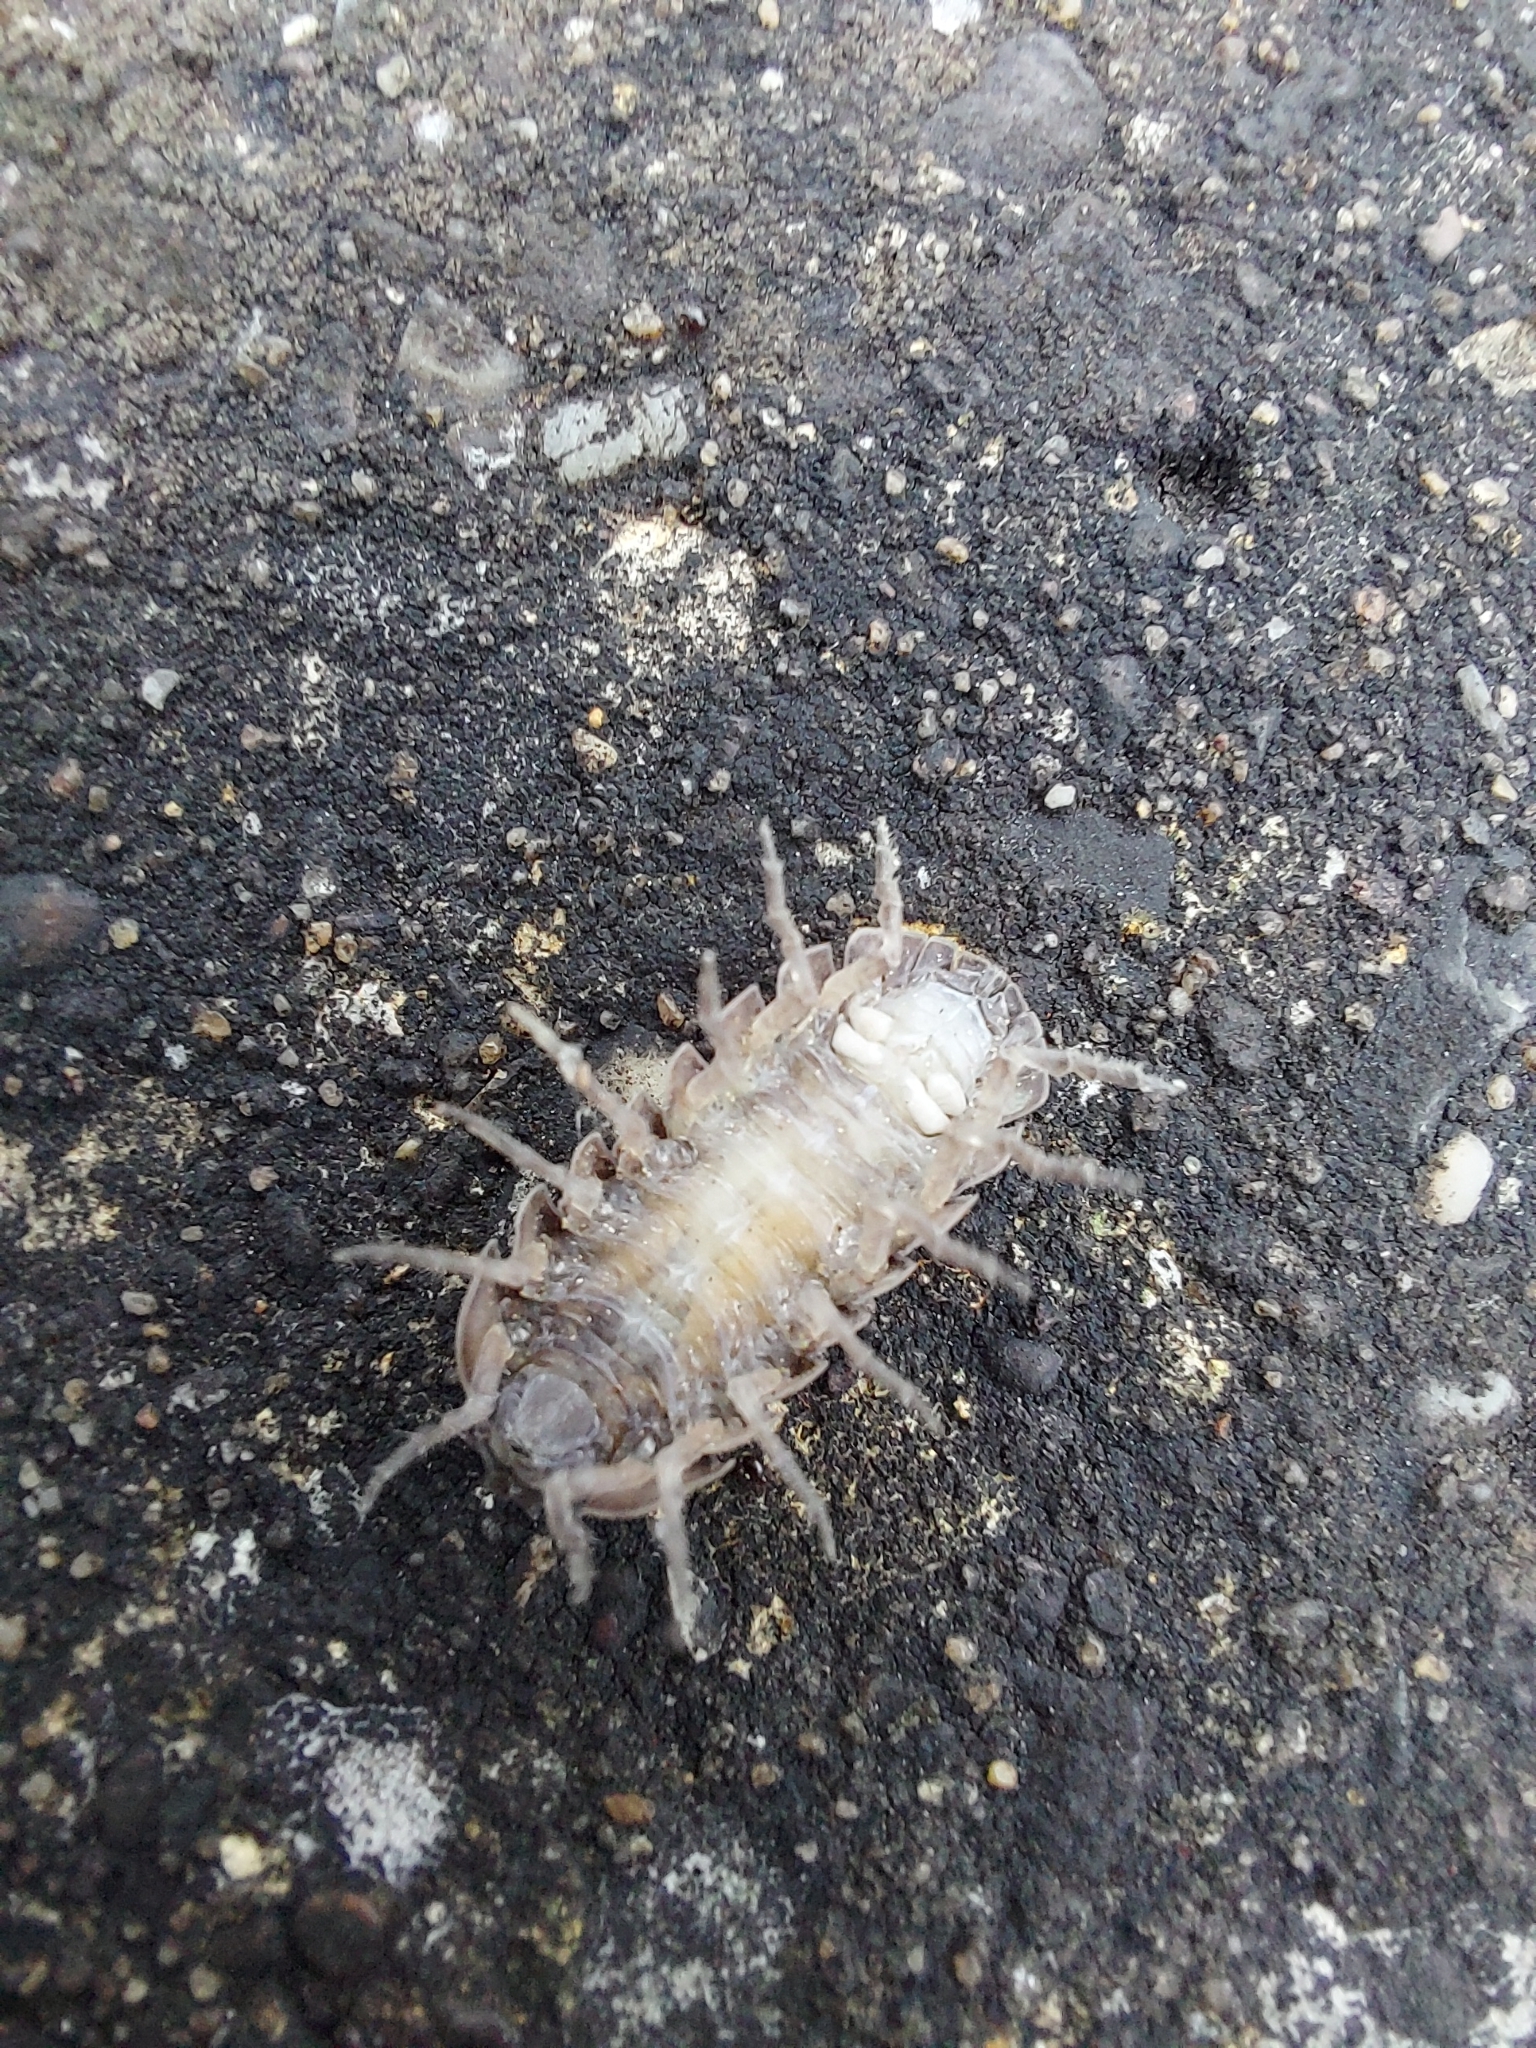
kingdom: Animalia
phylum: Arthropoda
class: Malacostraca
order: Isopoda
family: Armadillidiidae
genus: Armadillidium
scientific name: Armadillidium vulgare
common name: Common pill woodlouse
